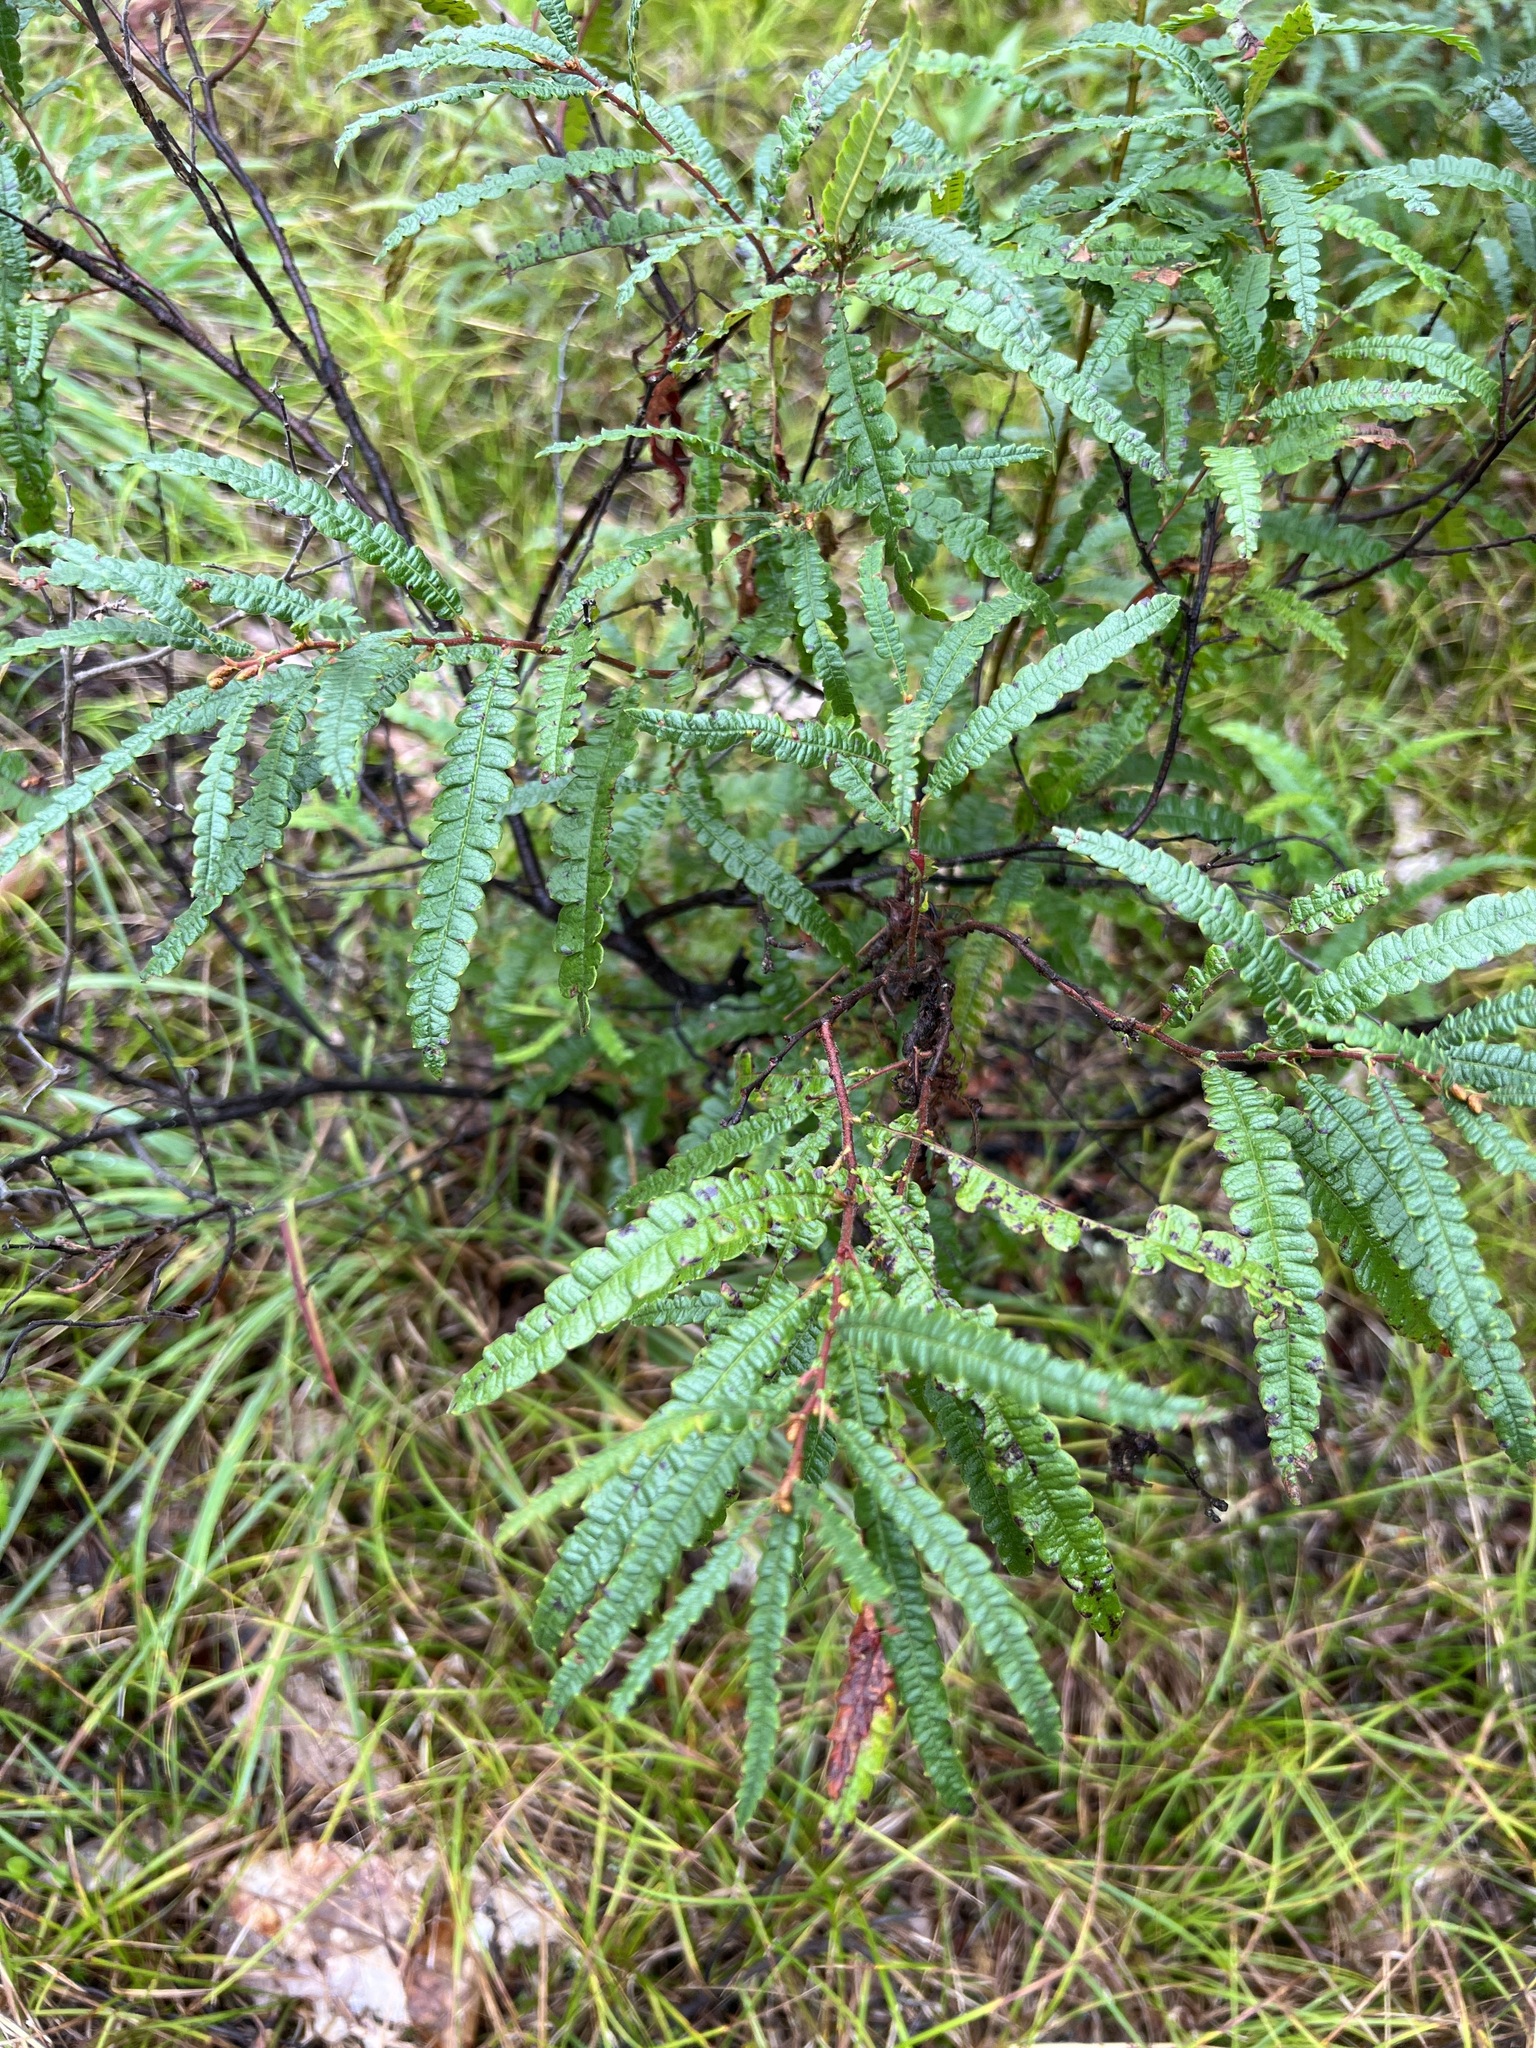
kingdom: Plantae
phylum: Tracheophyta
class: Magnoliopsida
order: Fagales
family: Myricaceae
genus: Comptonia
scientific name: Comptonia peregrina
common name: Sweet-fern
